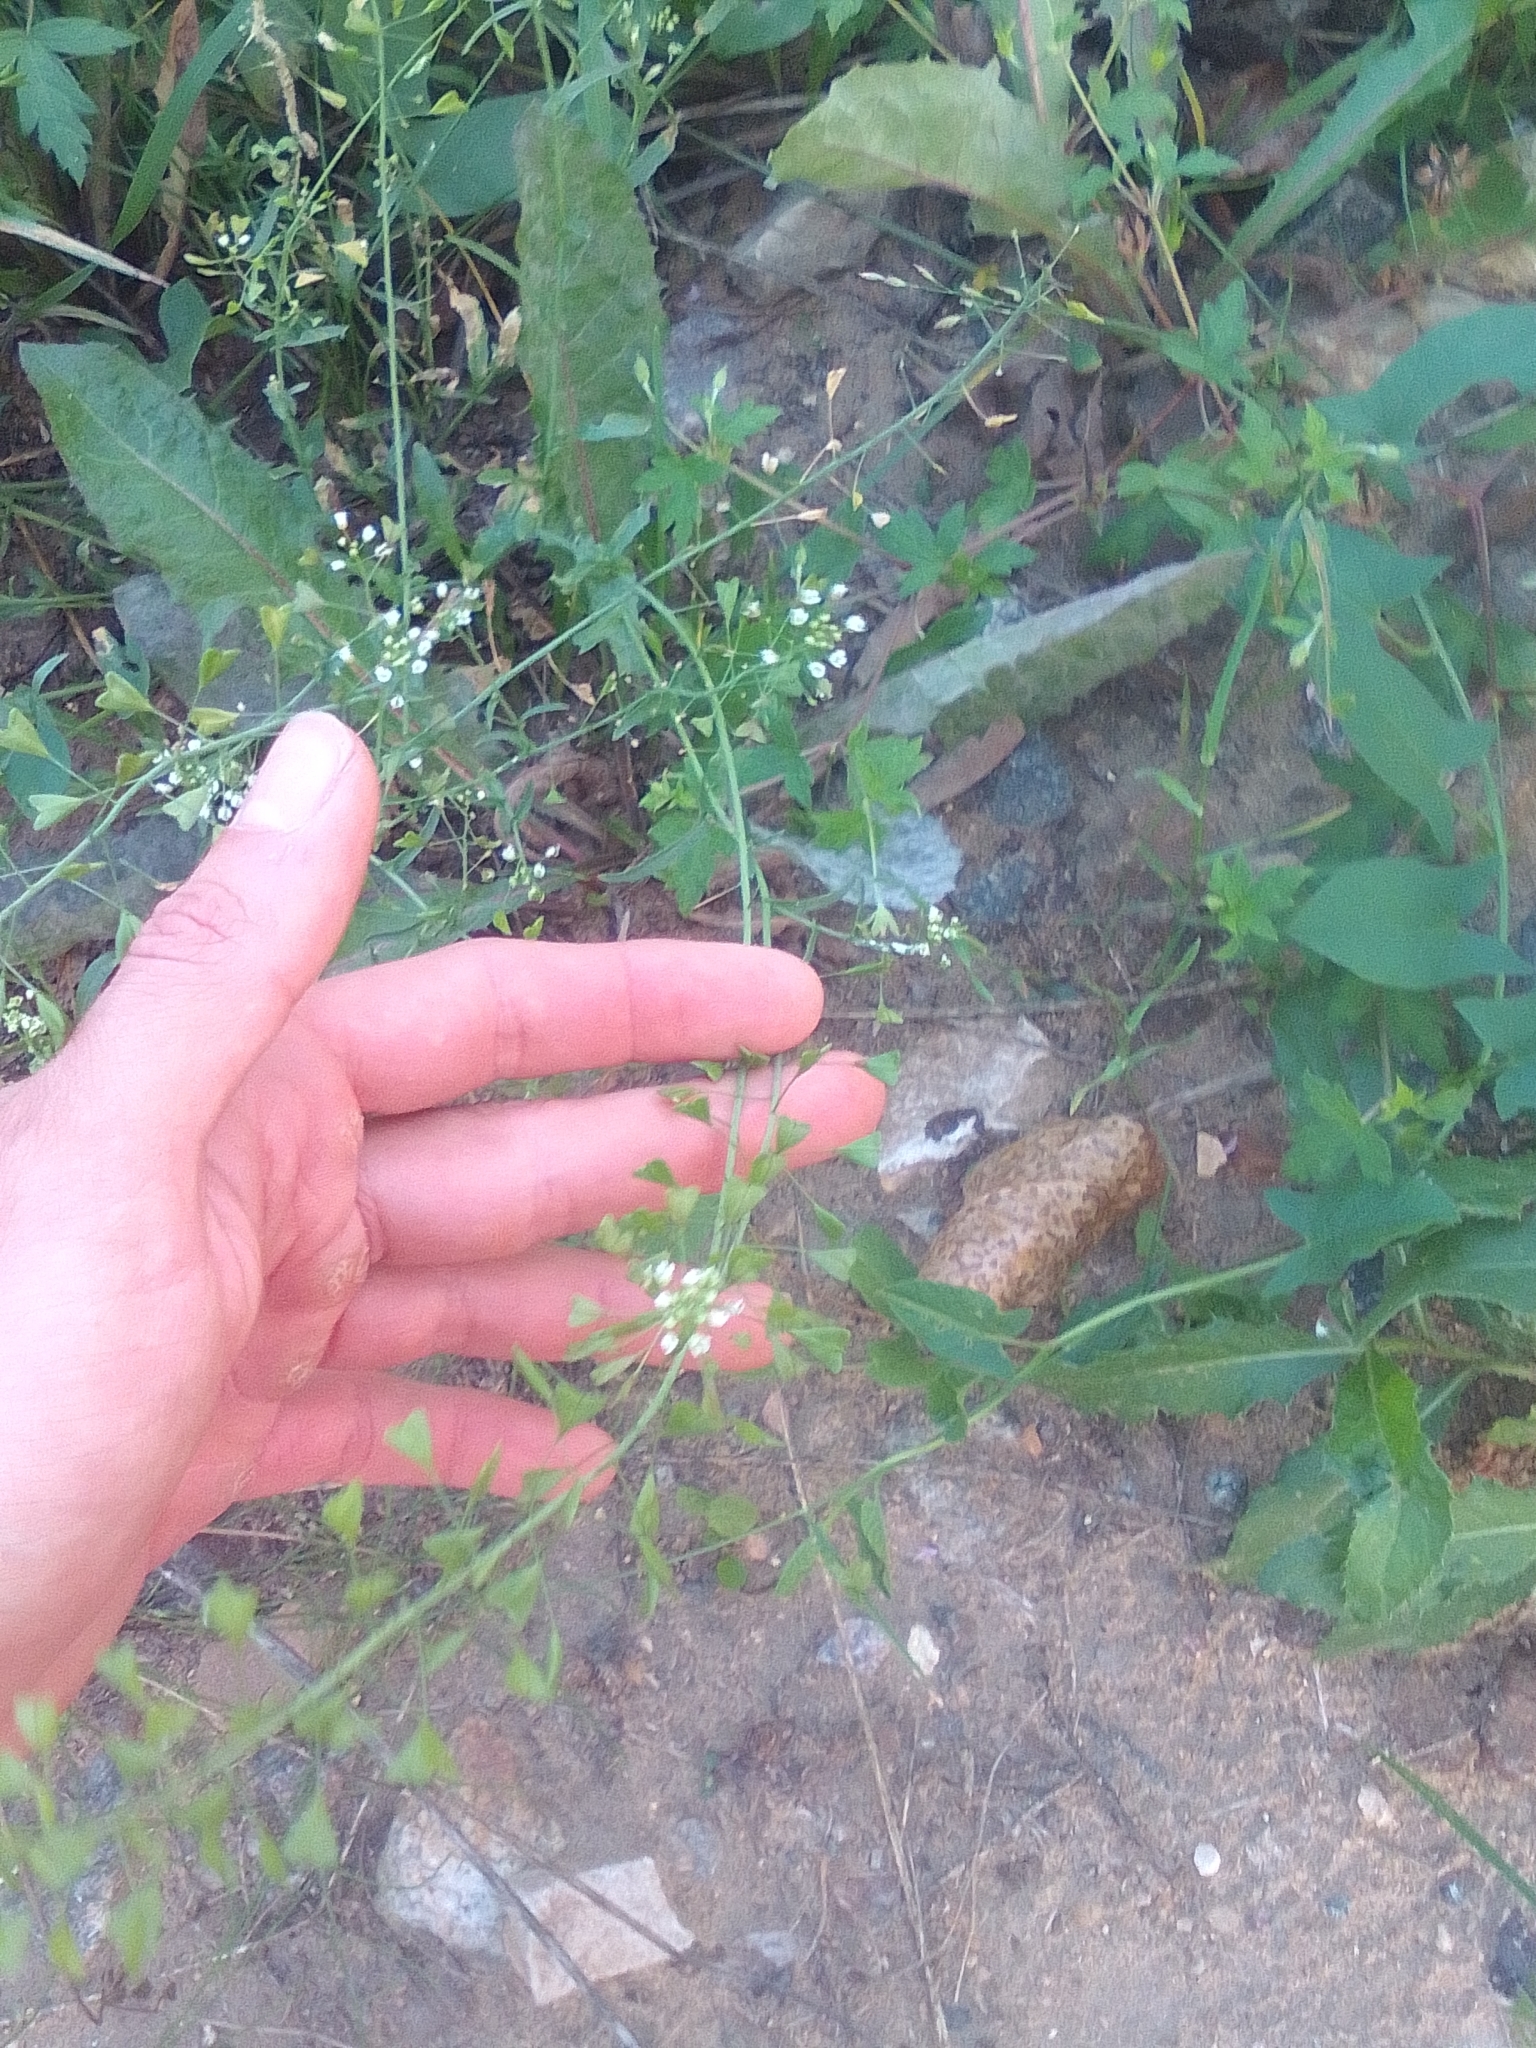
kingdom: Plantae
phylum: Tracheophyta
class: Magnoliopsida
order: Brassicales
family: Brassicaceae
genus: Capsella
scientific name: Capsella bursa-pastoris
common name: Shepherd's purse
